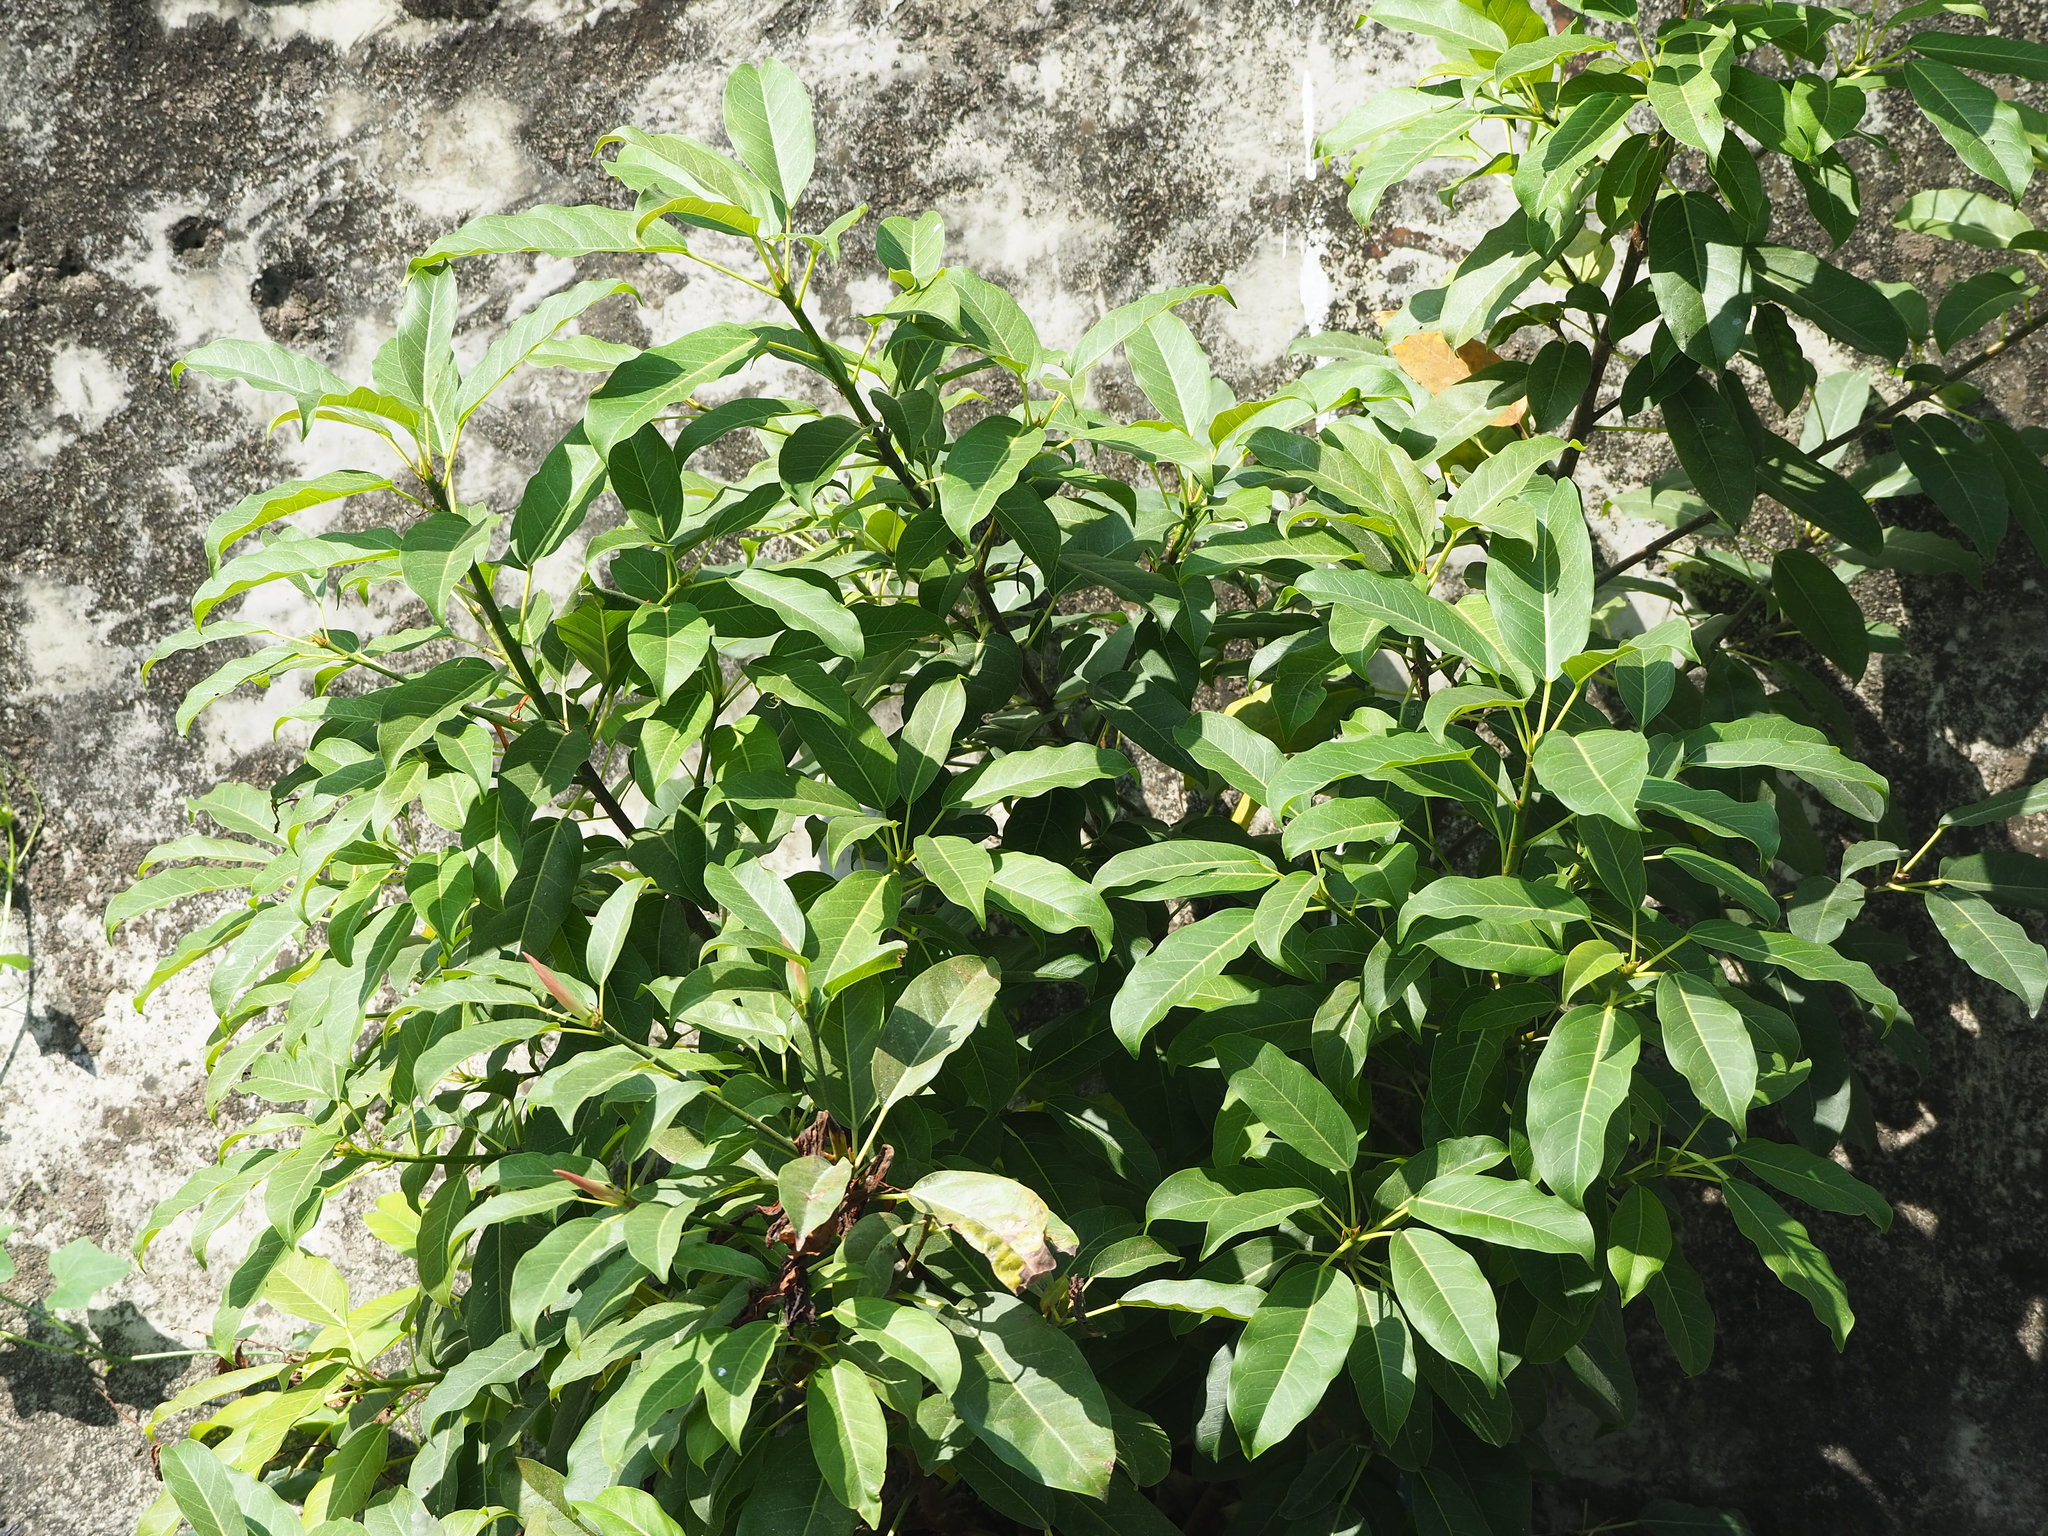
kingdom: Plantae
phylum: Tracheophyta
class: Magnoliopsida
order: Rosales
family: Moraceae
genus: Ficus
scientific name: Ficus subpisocarpa
